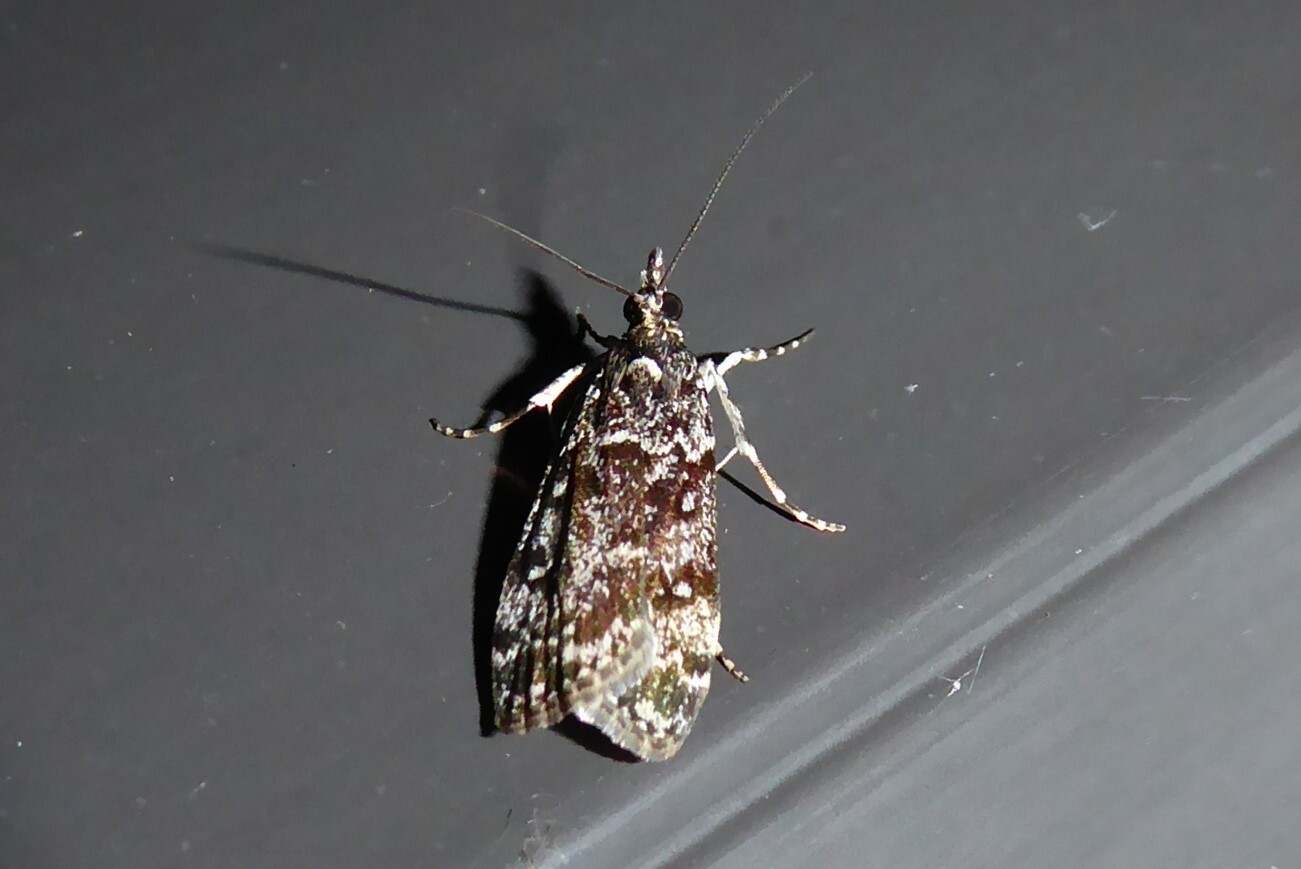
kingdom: Animalia
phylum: Arthropoda
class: Insecta
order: Lepidoptera
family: Crambidae
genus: Eudonia
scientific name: Eudonia philerga
